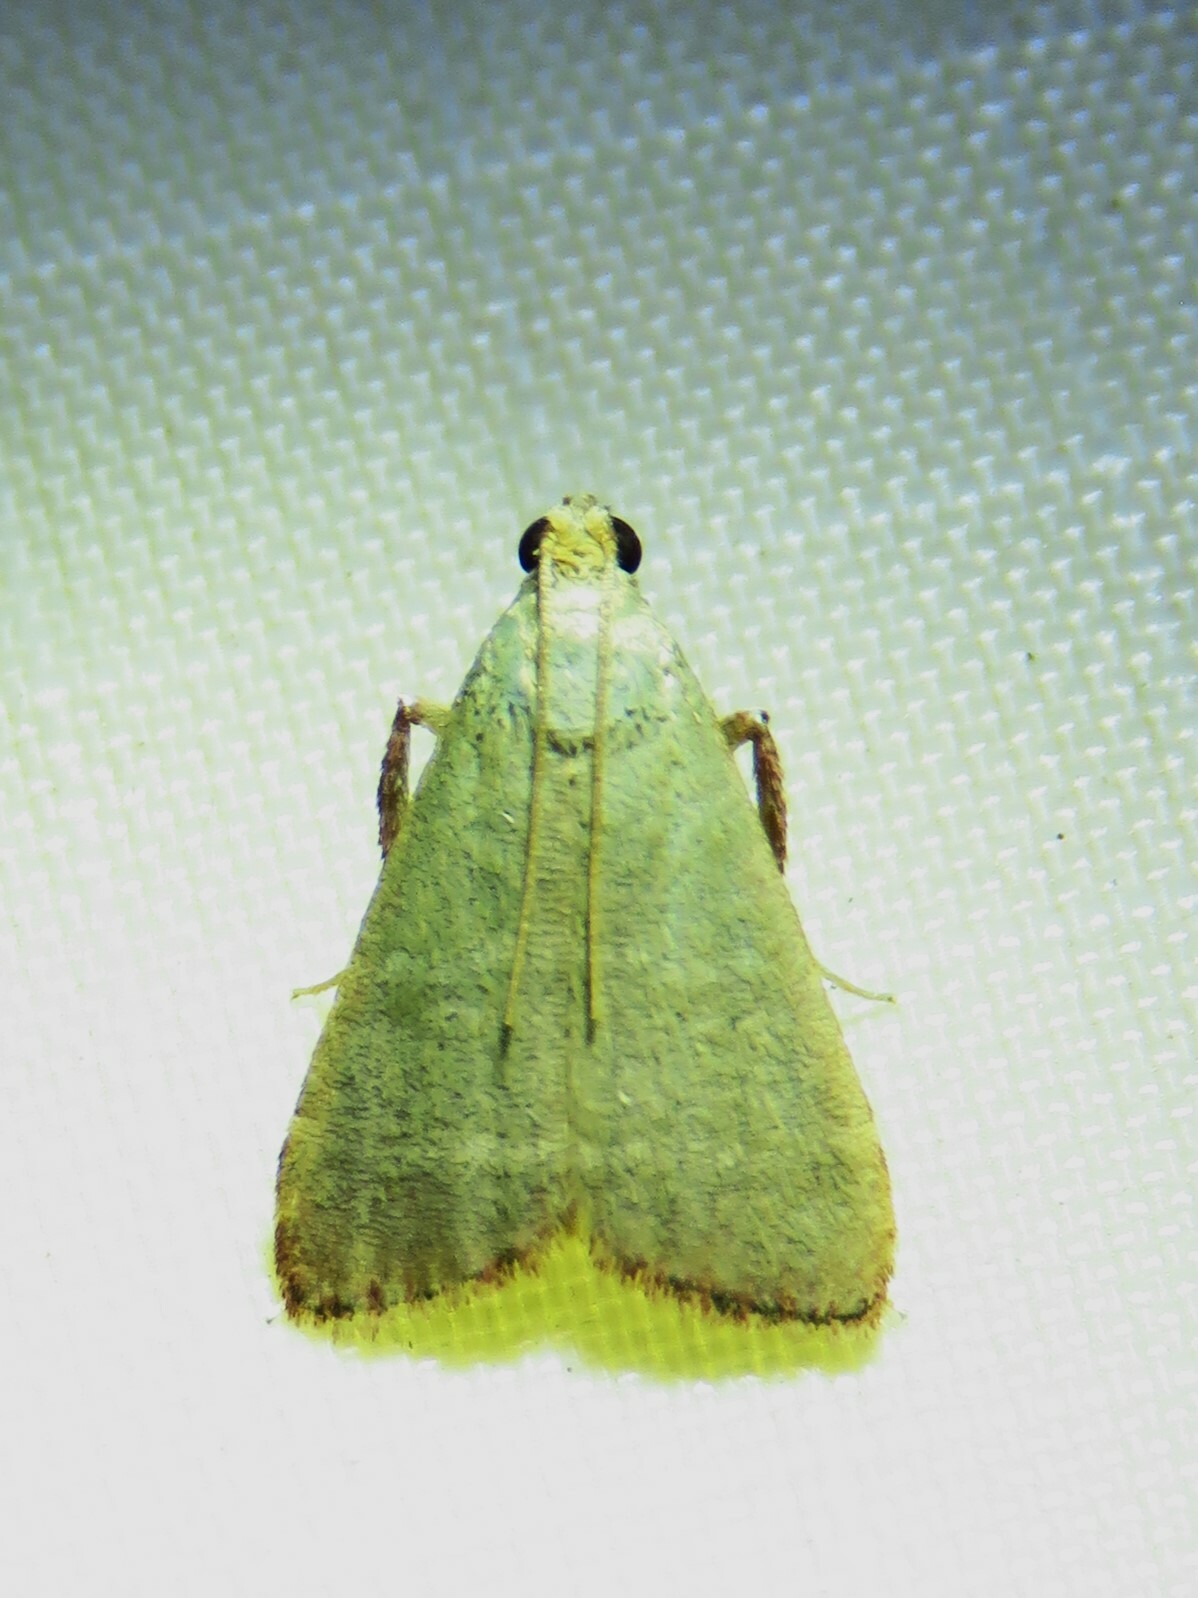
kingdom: Animalia
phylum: Arthropoda
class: Insecta
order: Lepidoptera
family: Pyralidae
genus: Arta
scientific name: Arta olivalis
